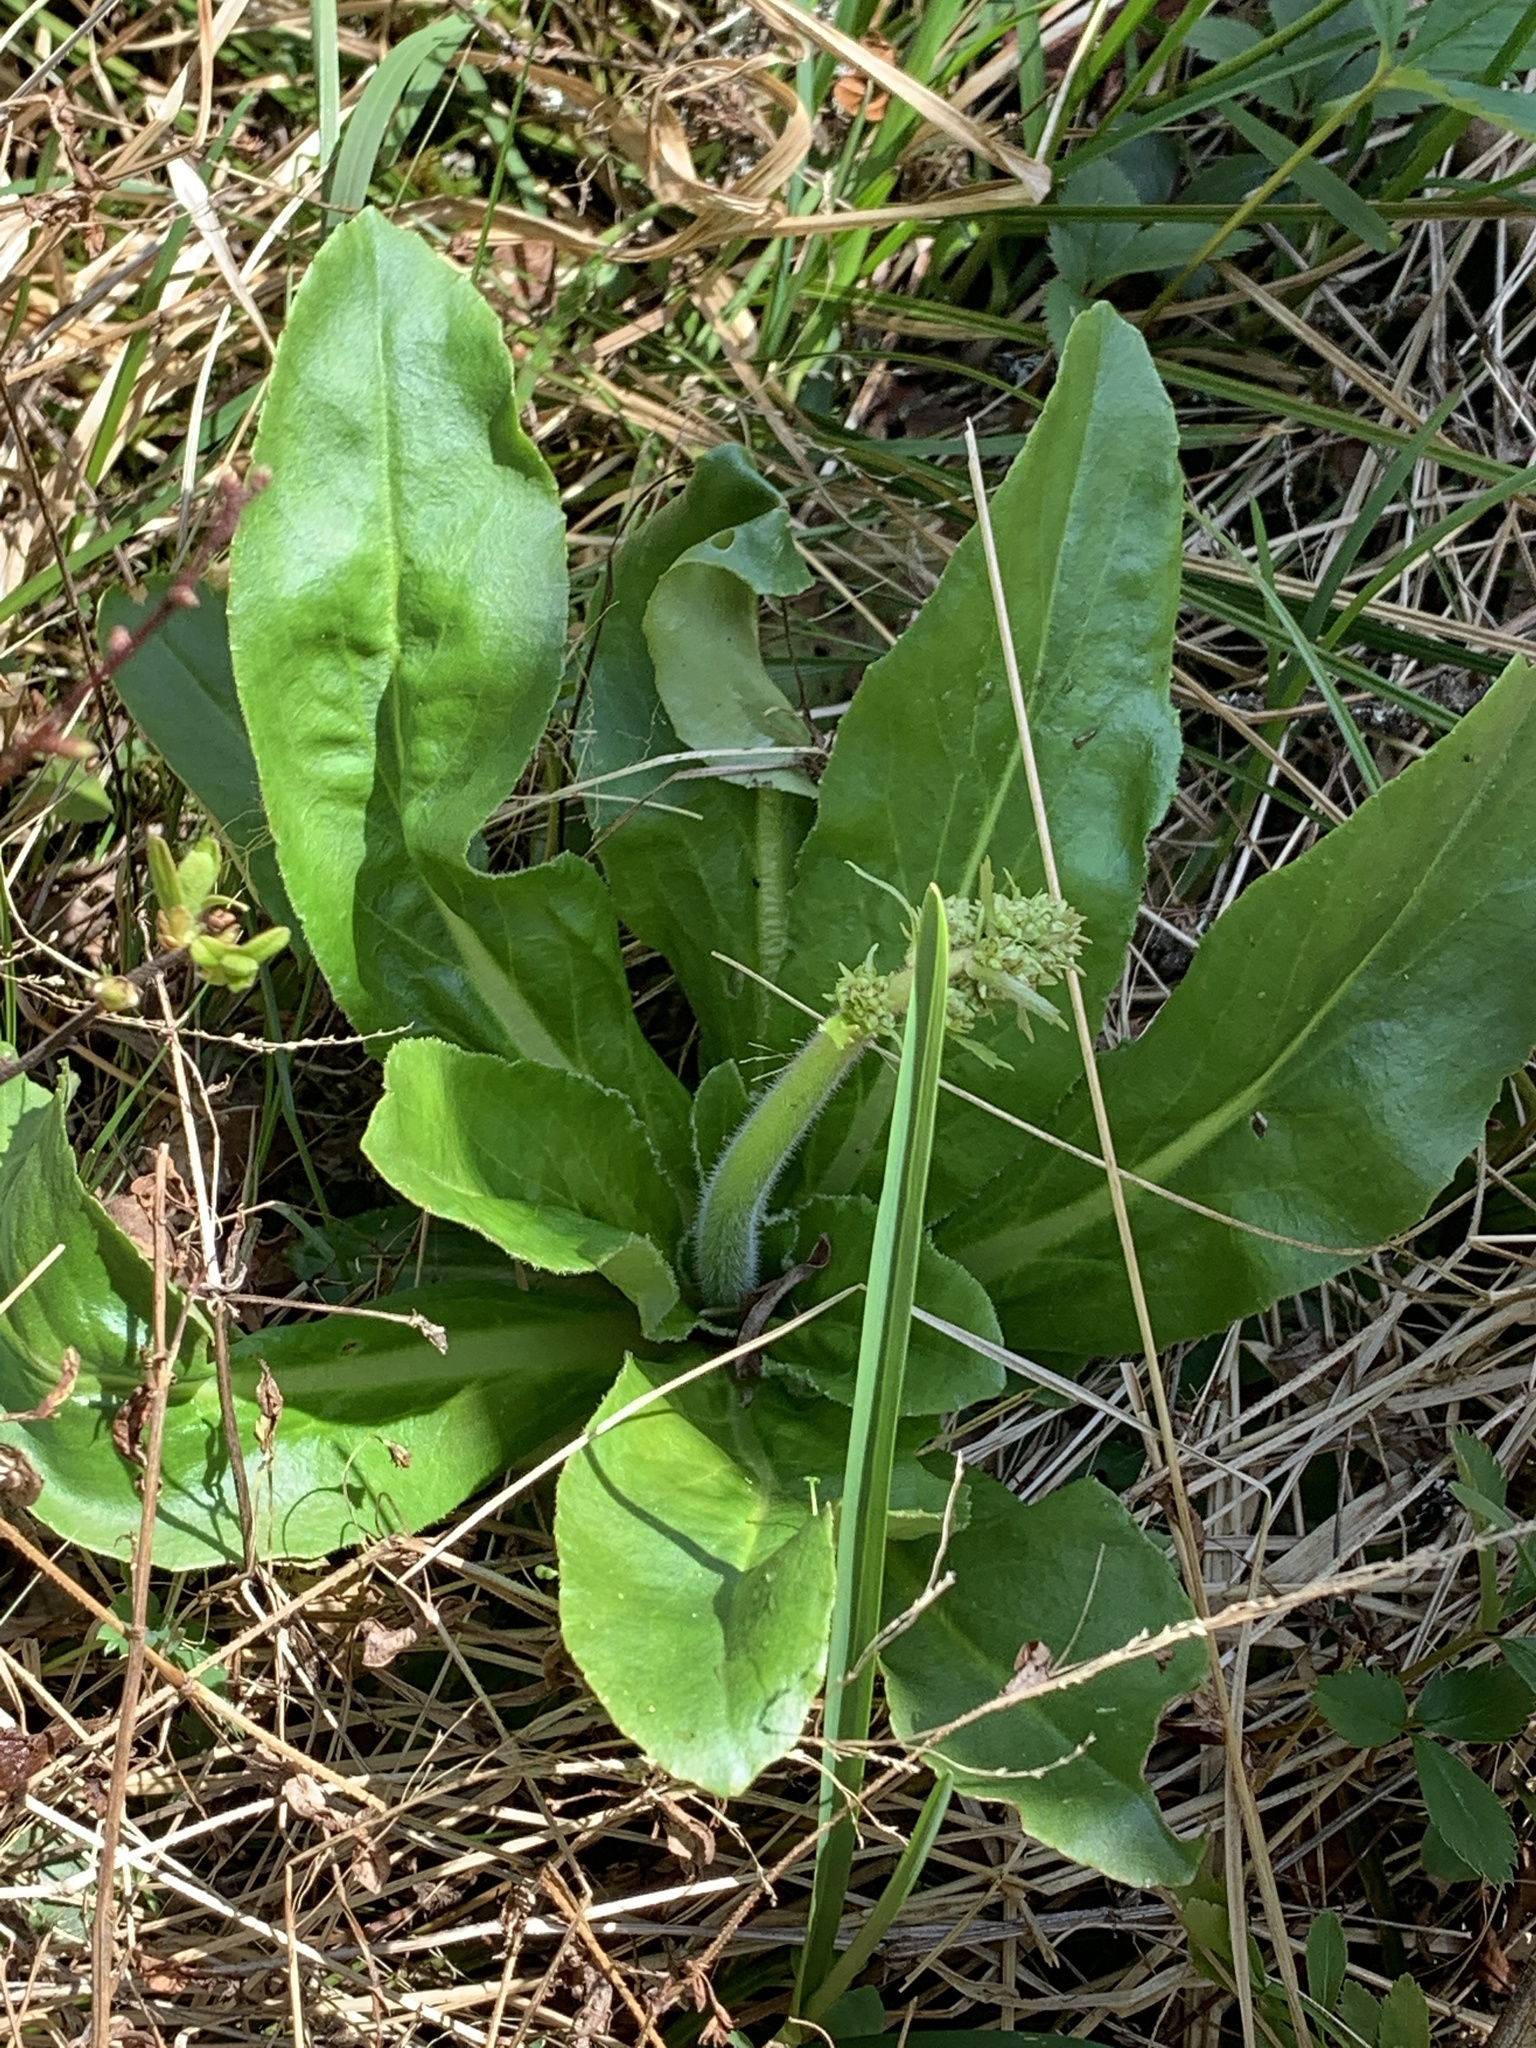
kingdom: Plantae
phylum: Tracheophyta
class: Magnoliopsida
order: Saxifragales
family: Saxifragaceae
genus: Micranthes
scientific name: Micranthes pensylvanica
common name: Marsh saxifrage
